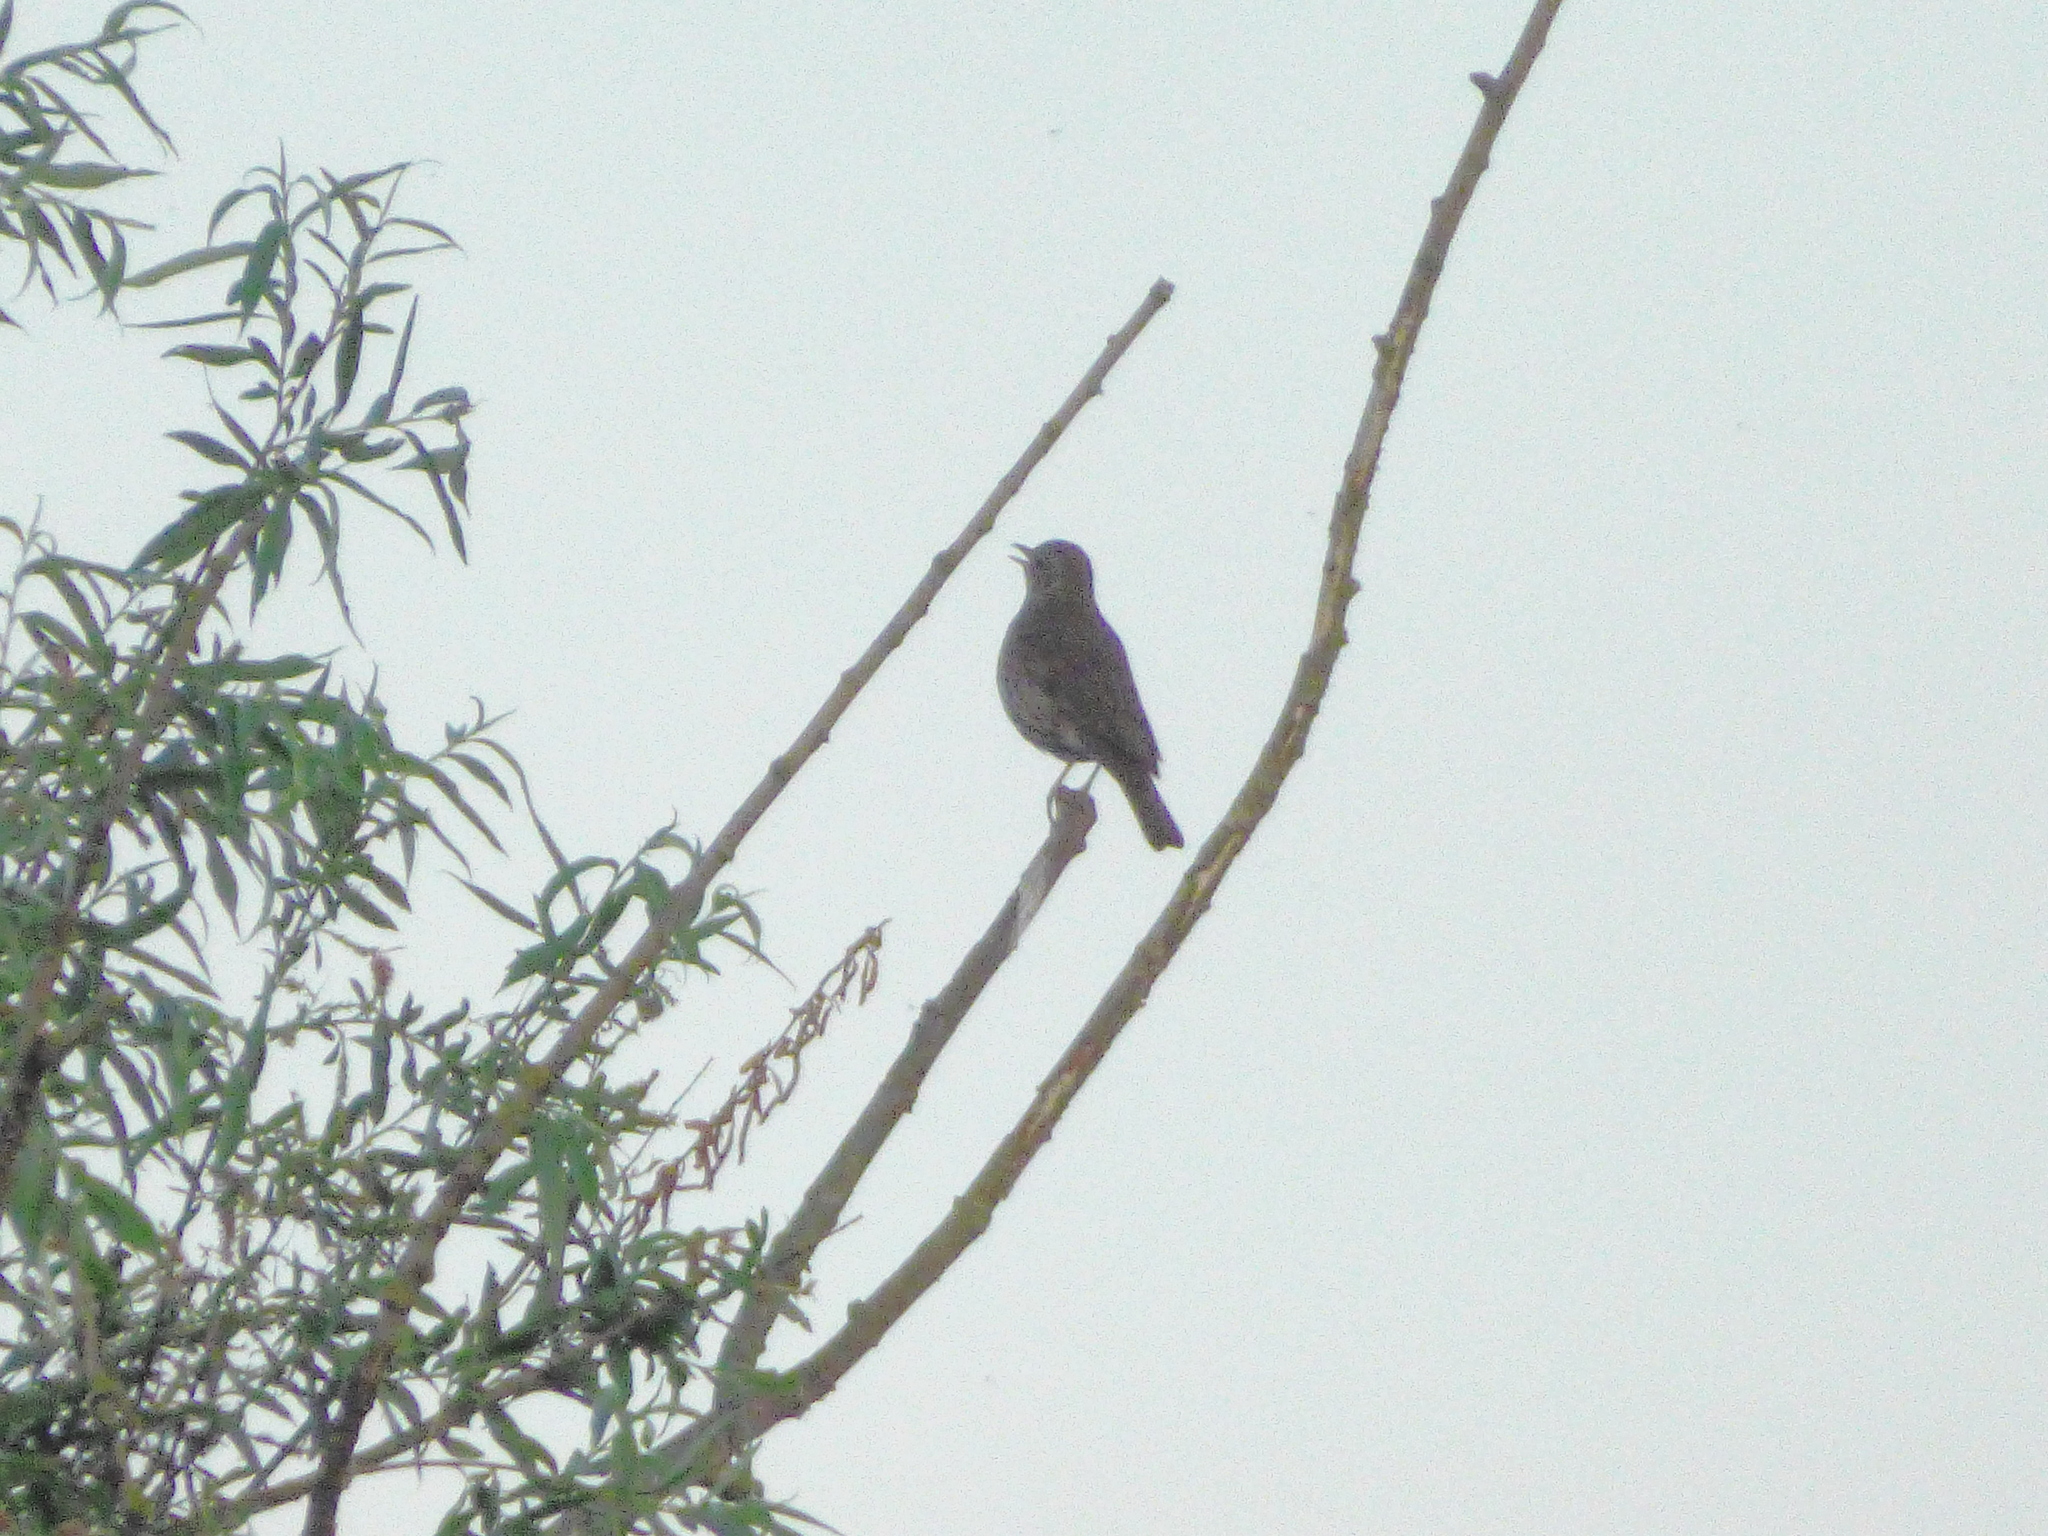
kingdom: Animalia
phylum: Chordata
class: Aves
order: Passeriformes
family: Turdidae
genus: Turdus
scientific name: Turdus philomelos
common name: Song thrush
